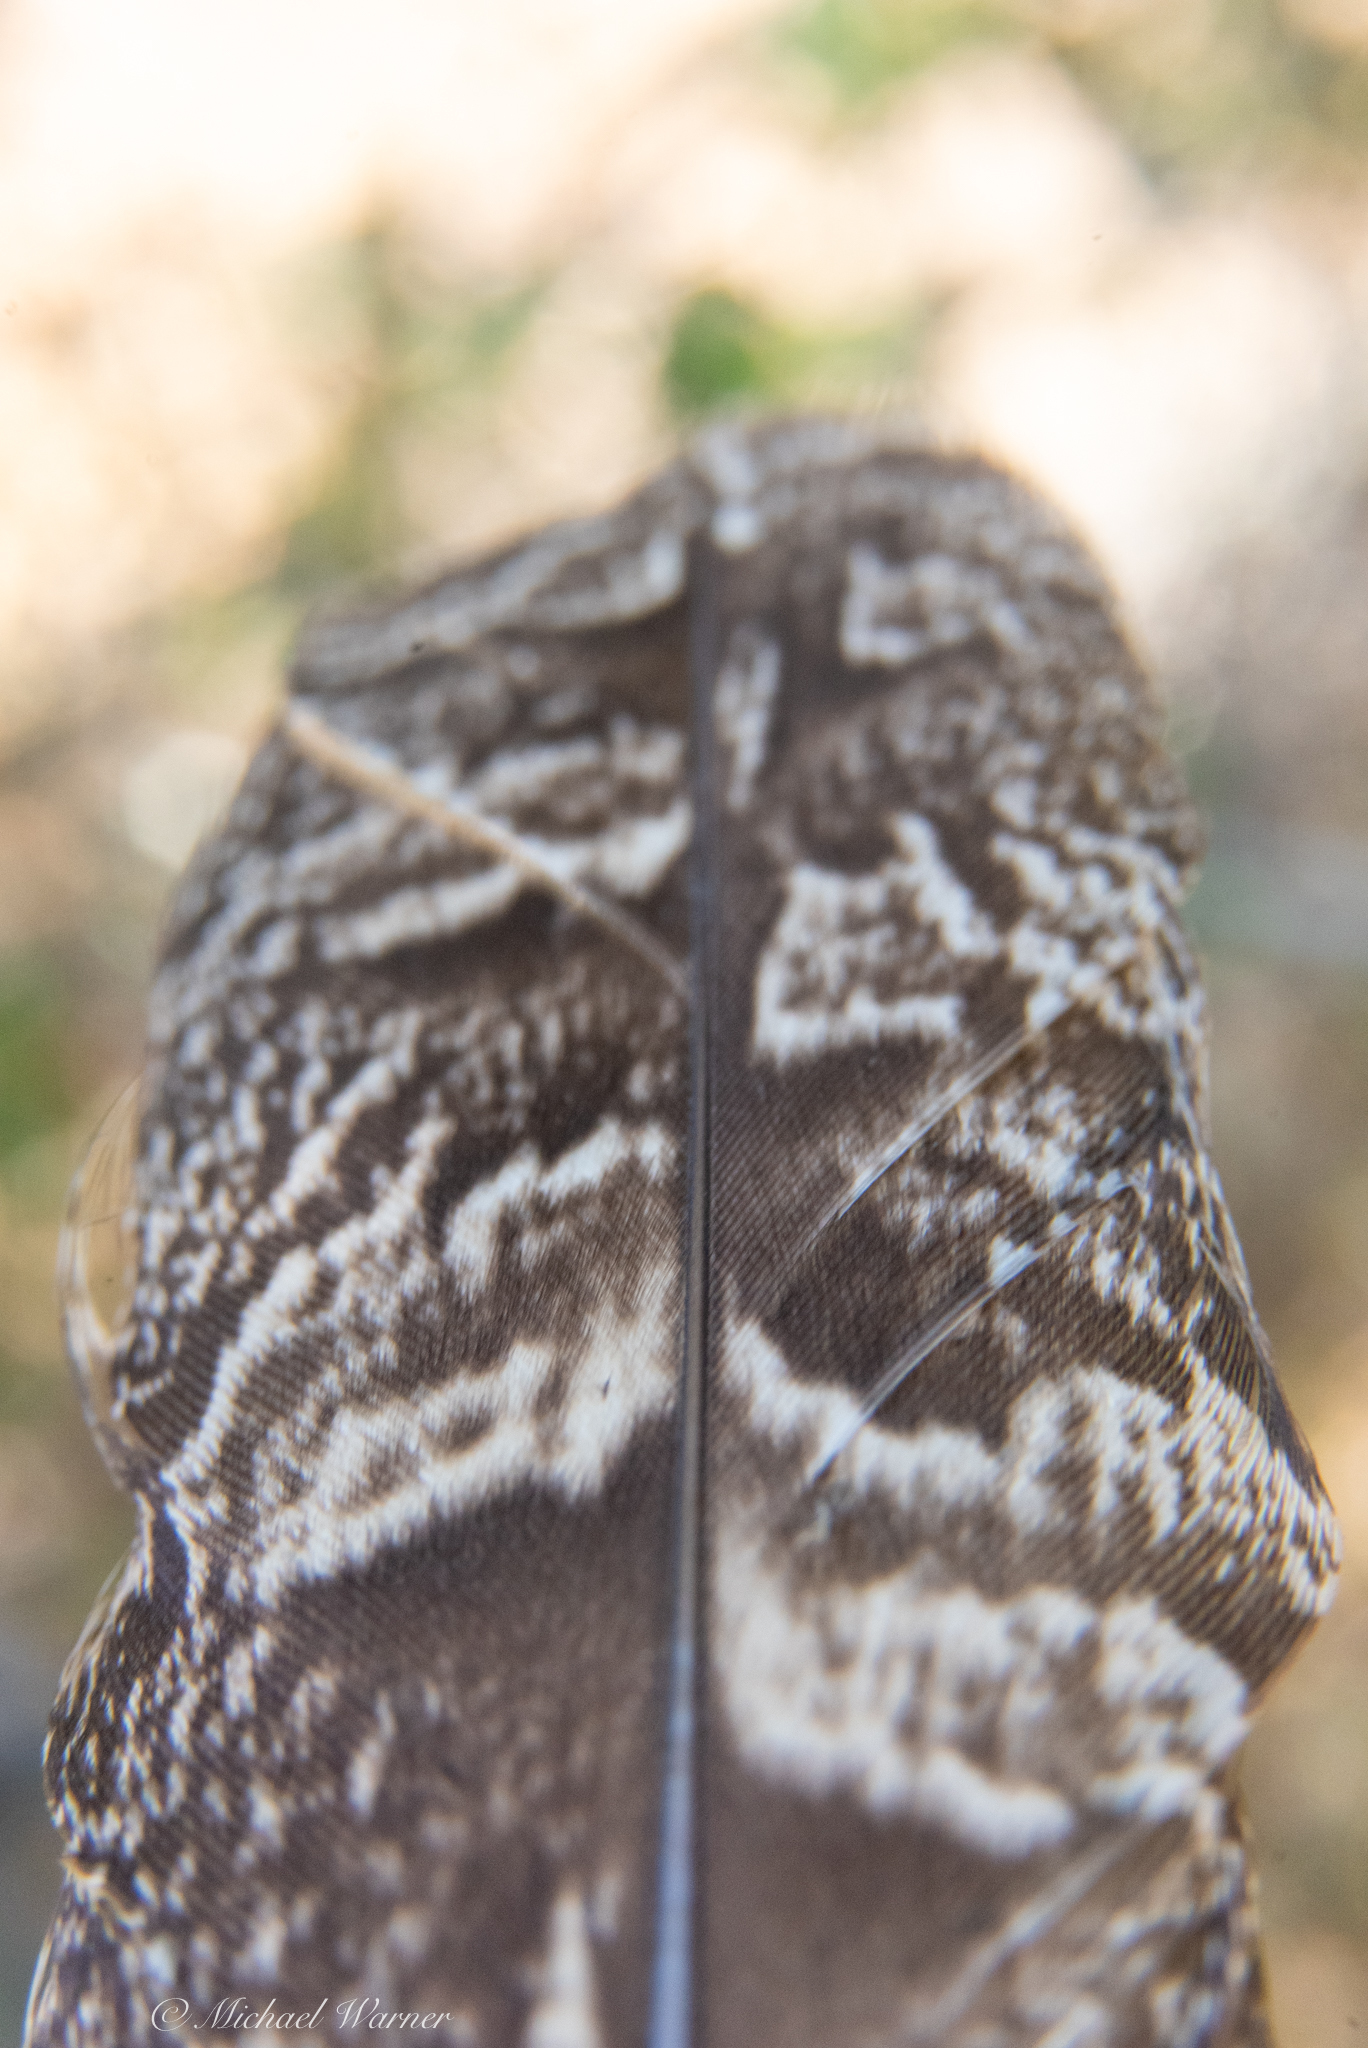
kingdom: Animalia
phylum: Chordata
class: Aves
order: Strigiformes
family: Strigidae
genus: Bubo
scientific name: Bubo virginianus
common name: Great horned owl
